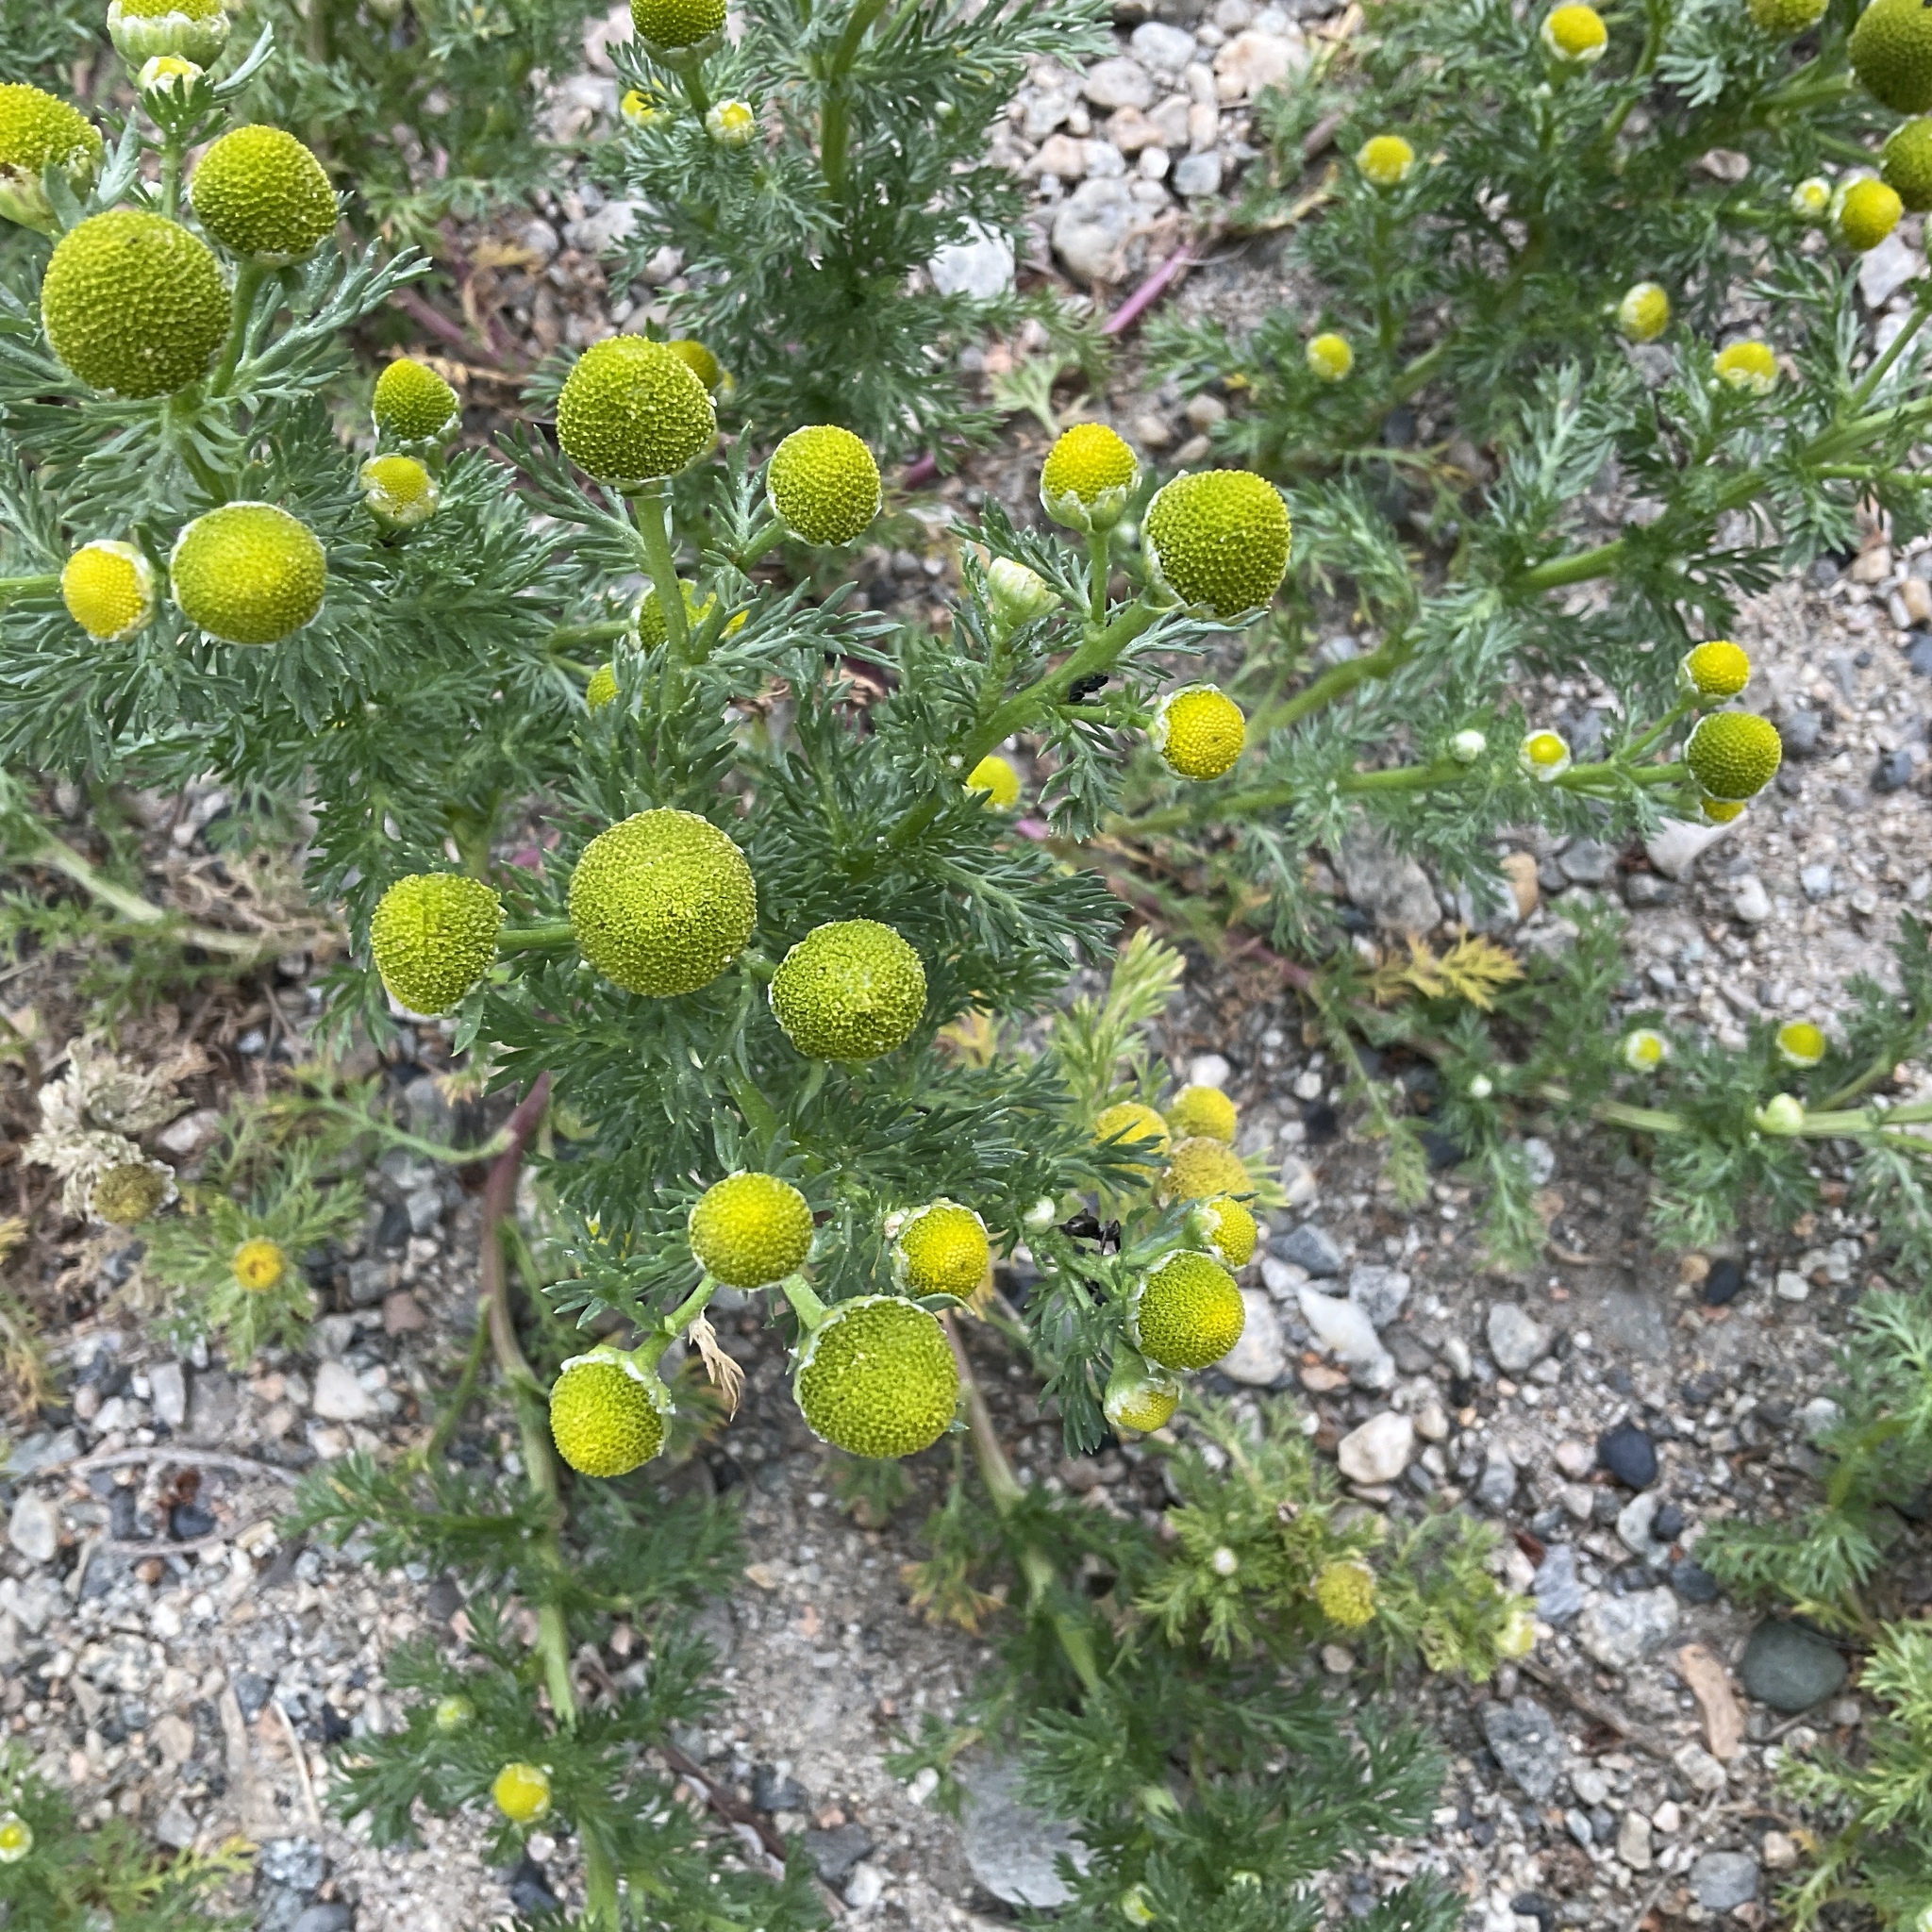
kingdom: Plantae
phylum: Tracheophyta
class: Magnoliopsida
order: Asterales
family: Asteraceae
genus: Matricaria
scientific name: Matricaria discoidea
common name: Disc mayweed
